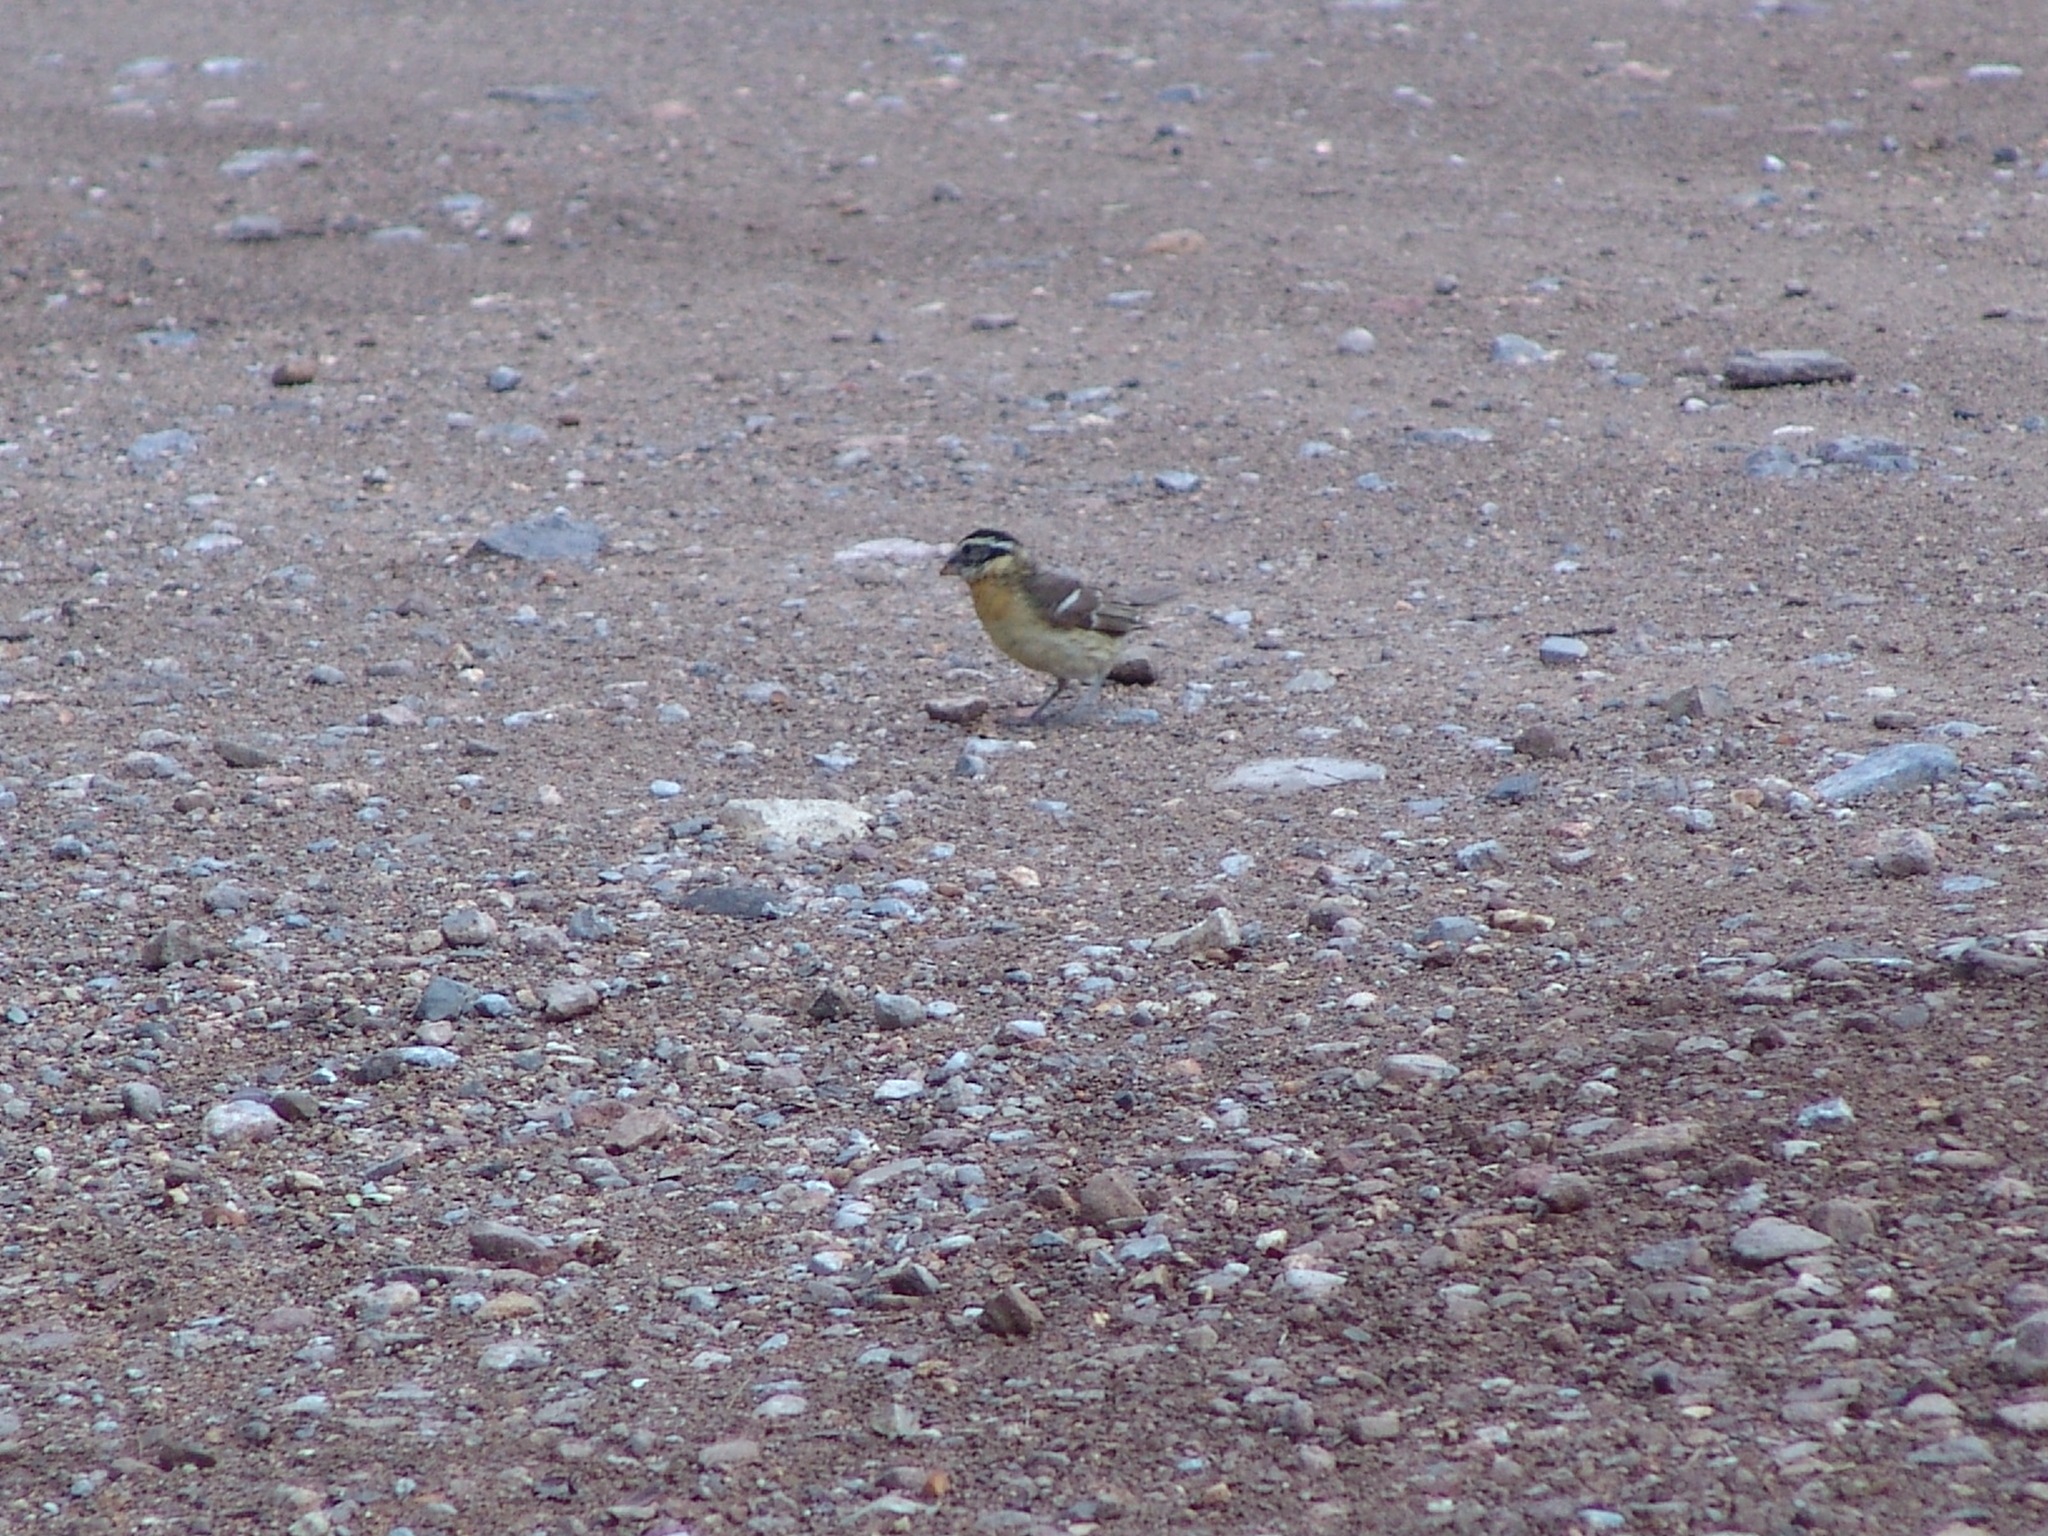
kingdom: Animalia
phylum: Chordata
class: Aves
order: Passeriformes
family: Cardinalidae
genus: Pheucticus
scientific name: Pheucticus melanocephalus
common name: Black-headed grosbeak
